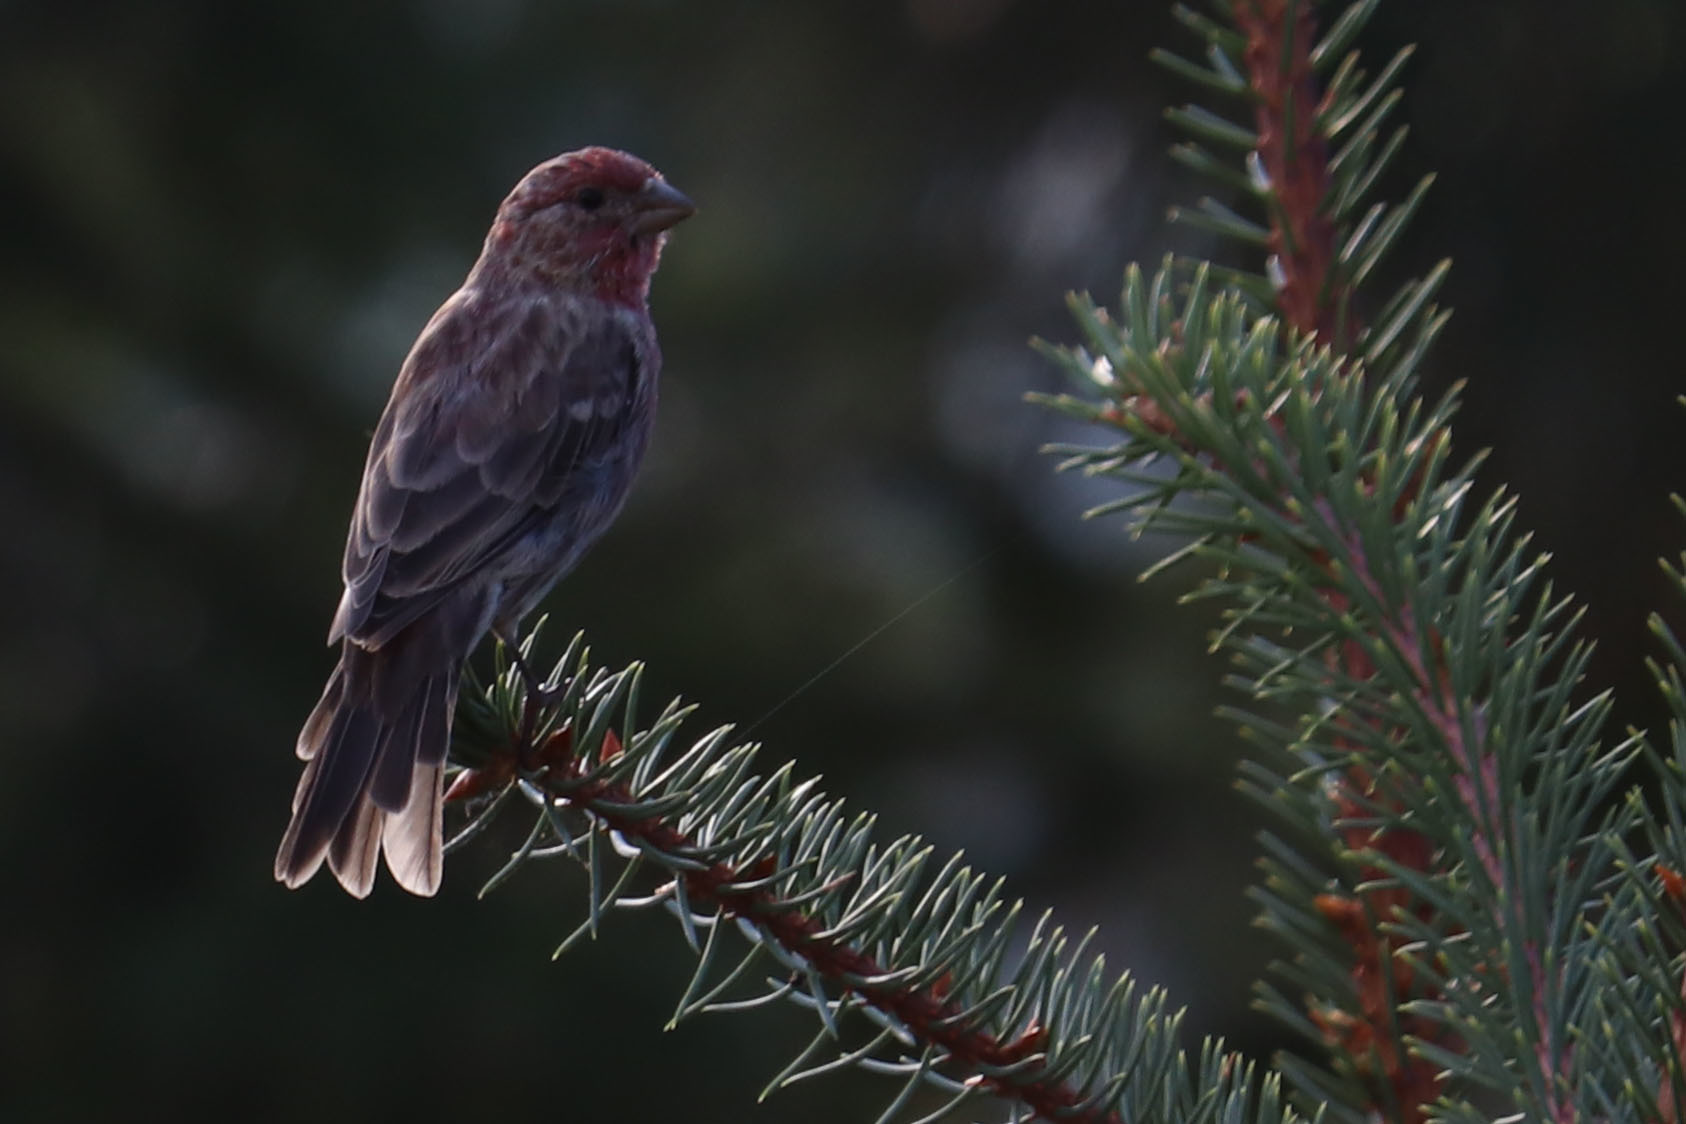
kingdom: Animalia
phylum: Chordata
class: Aves
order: Passeriformes
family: Fringillidae
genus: Haemorhous
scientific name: Haemorhous mexicanus
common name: House finch
